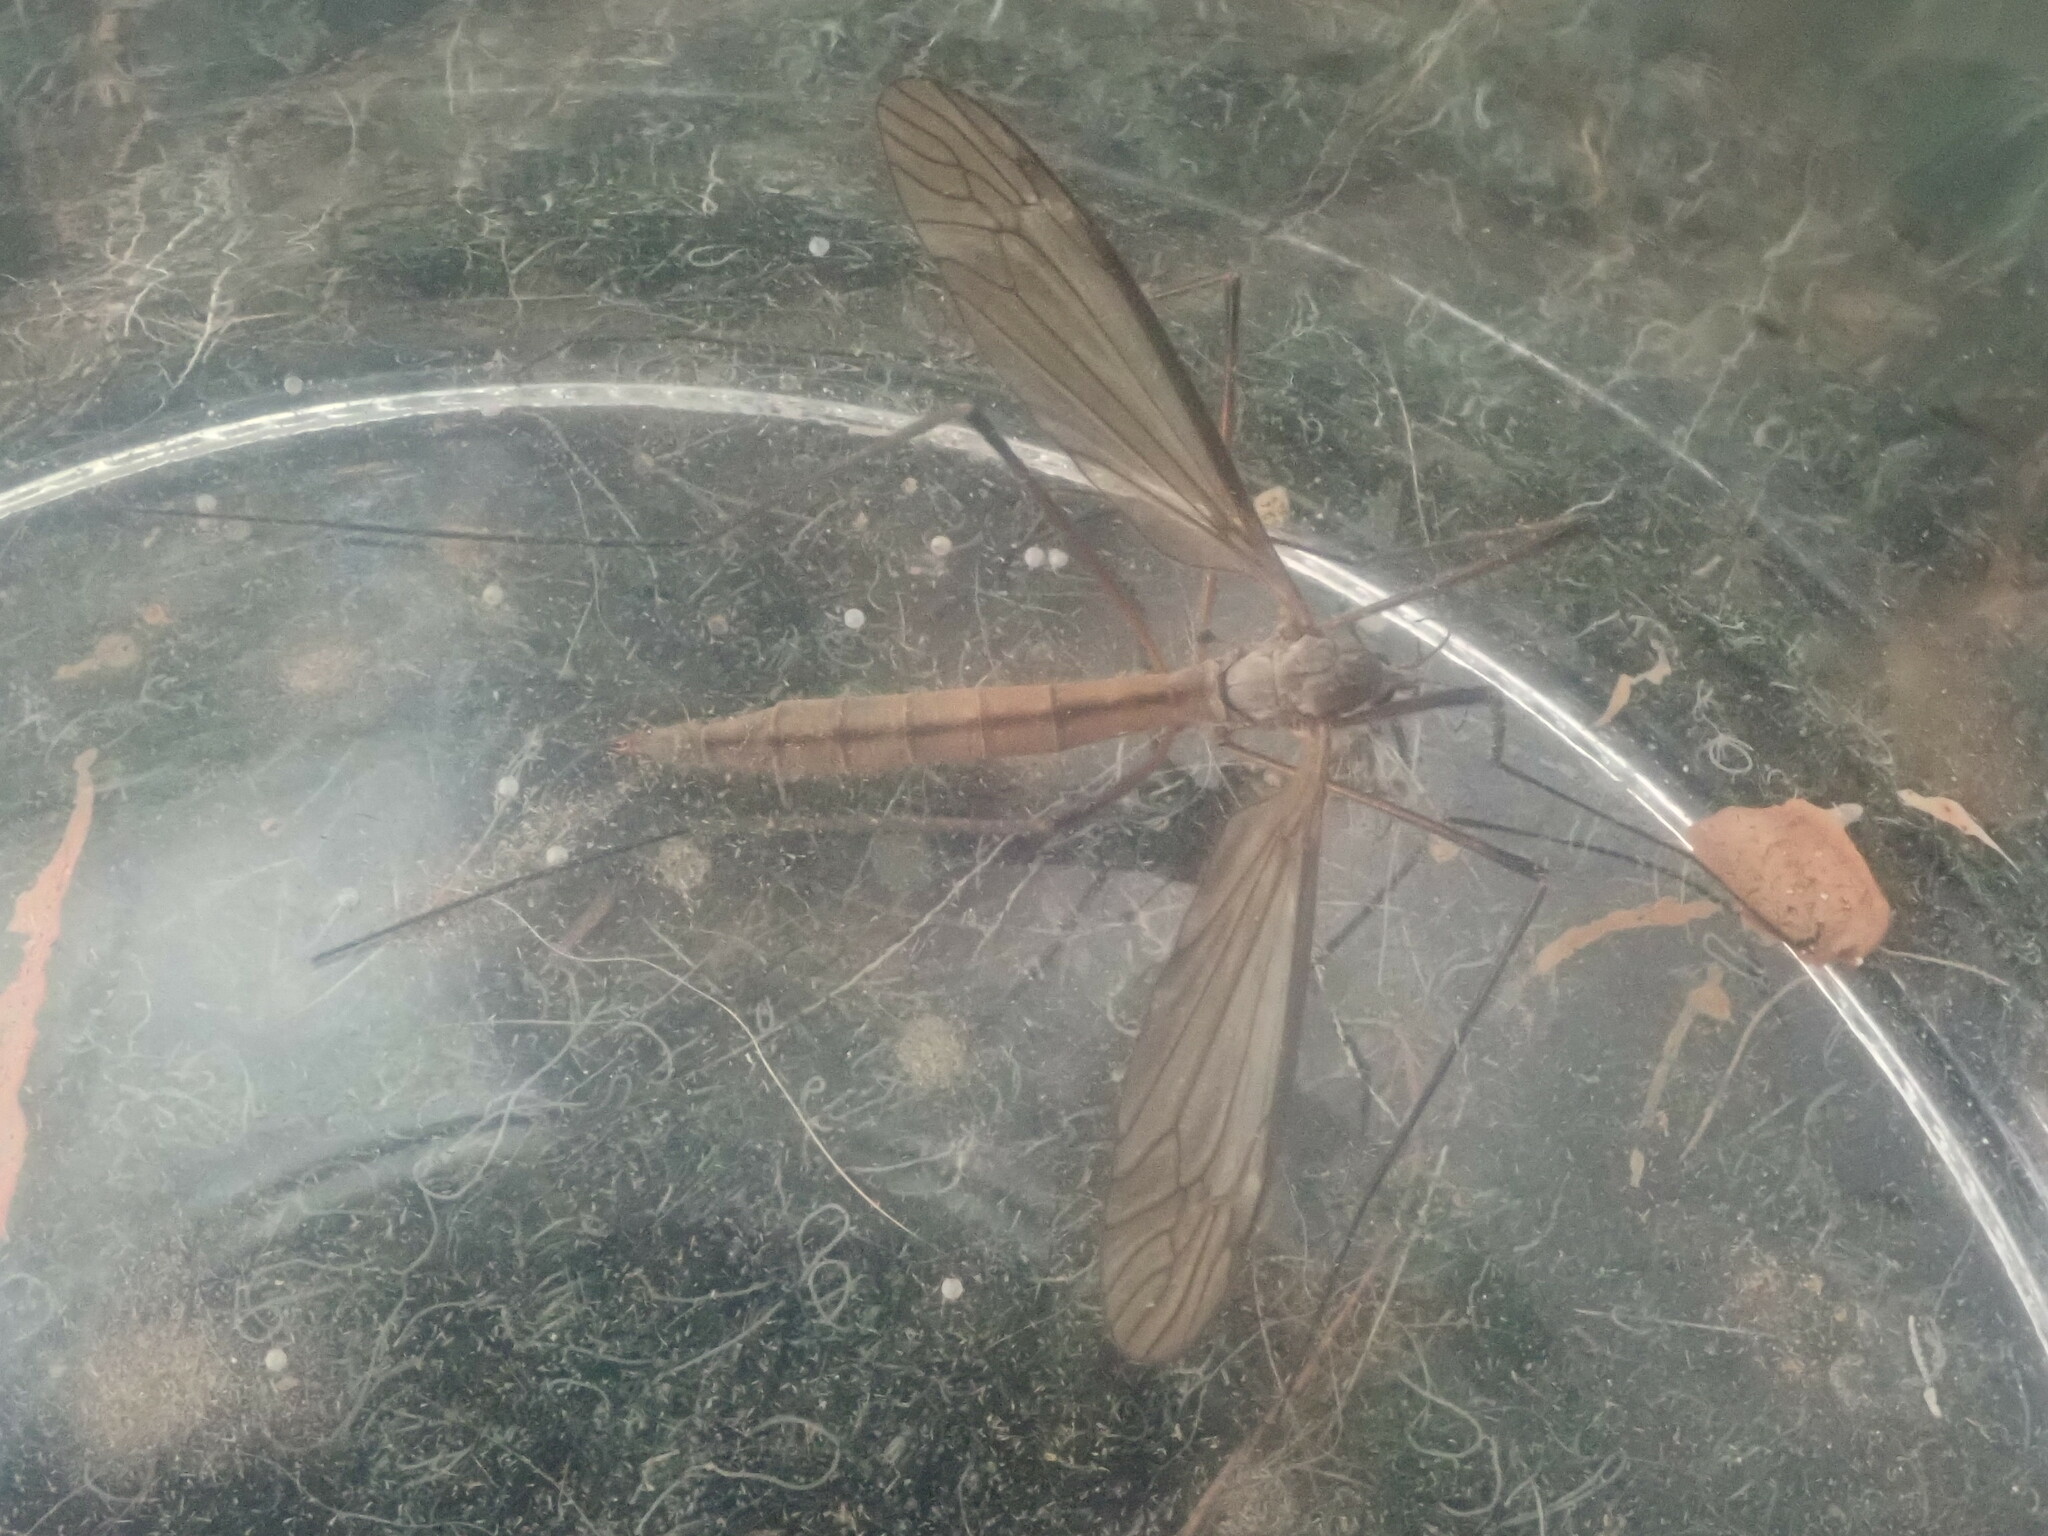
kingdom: Animalia
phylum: Arthropoda
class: Insecta
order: Diptera
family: Tipulidae
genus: Tipula
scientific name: Tipula
